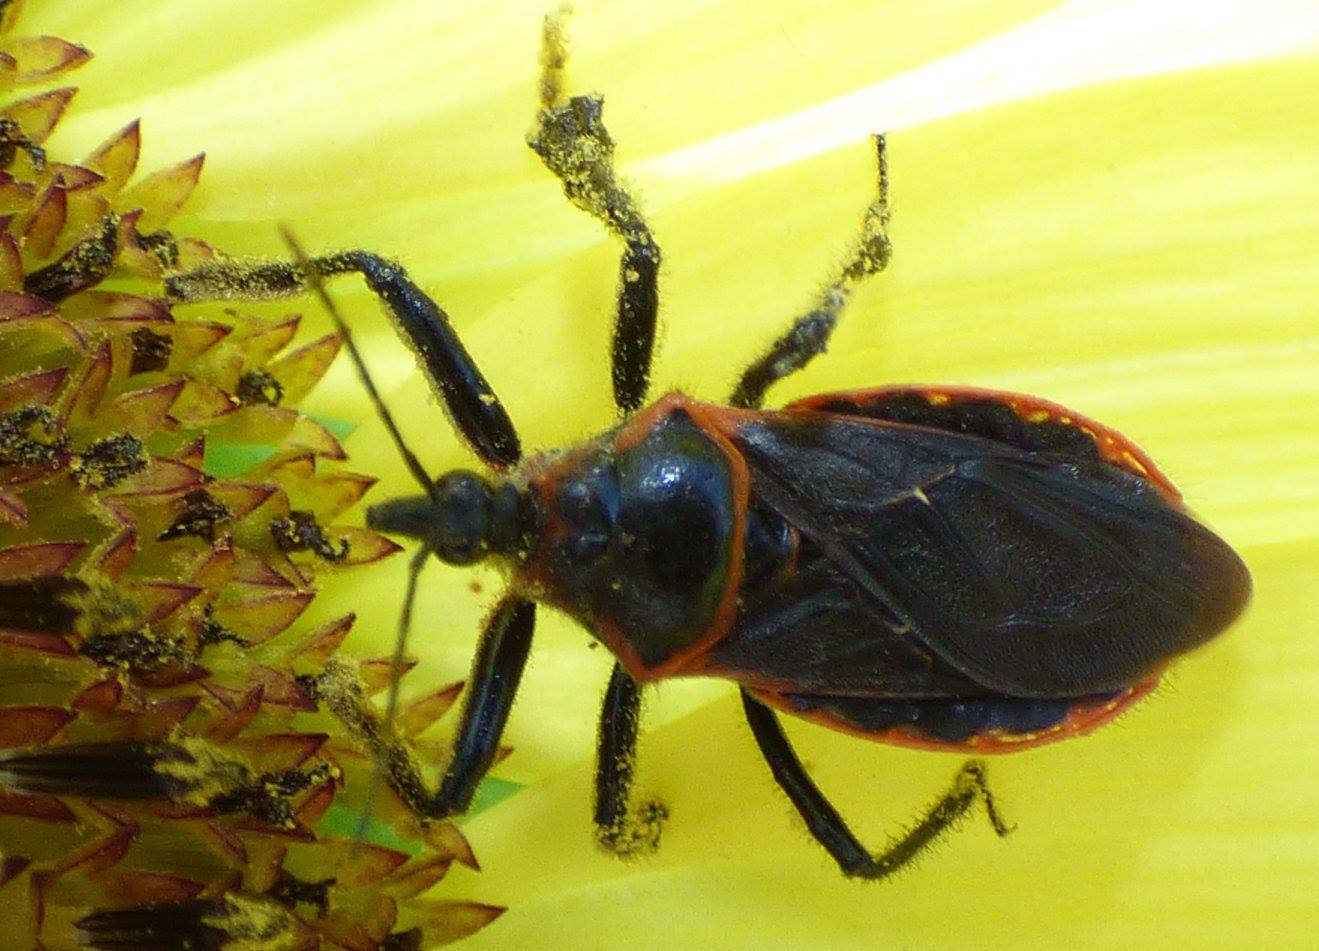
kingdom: Animalia
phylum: Arthropoda
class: Insecta
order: Hemiptera
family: Reduviidae
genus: Apiomerus
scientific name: Apiomerus crassipes
